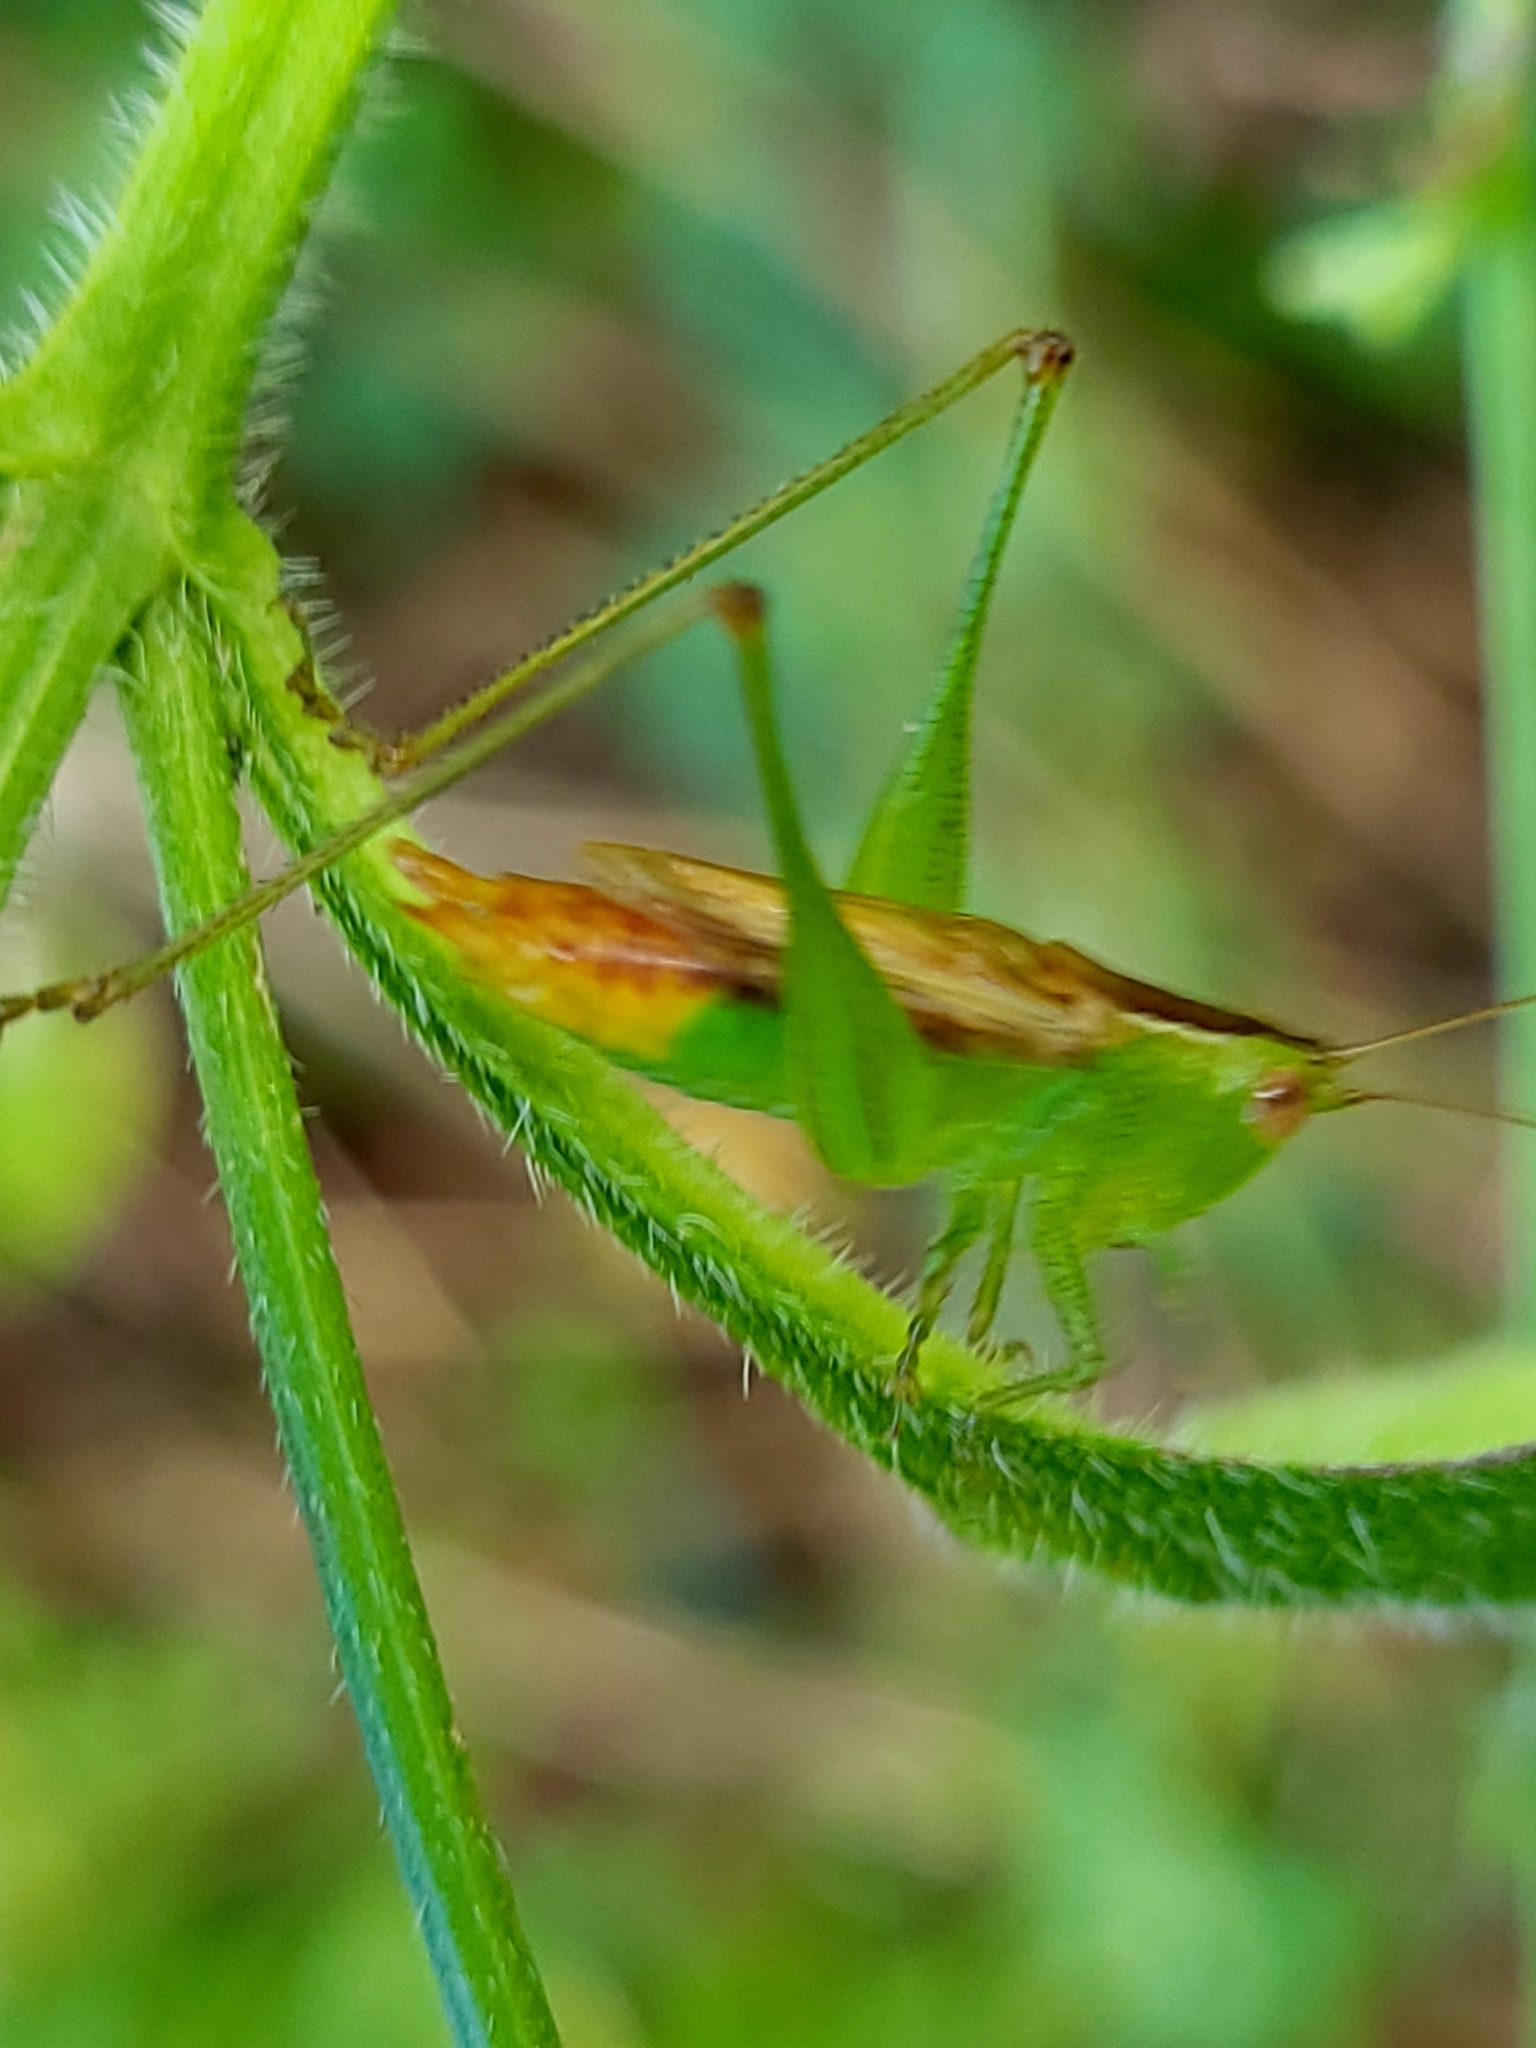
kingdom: Animalia
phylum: Arthropoda
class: Insecta
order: Orthoptera
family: Tettigoniidae
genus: Conocephalus
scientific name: Conocephalus brevipennis
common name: Short-winged meadow katydid
